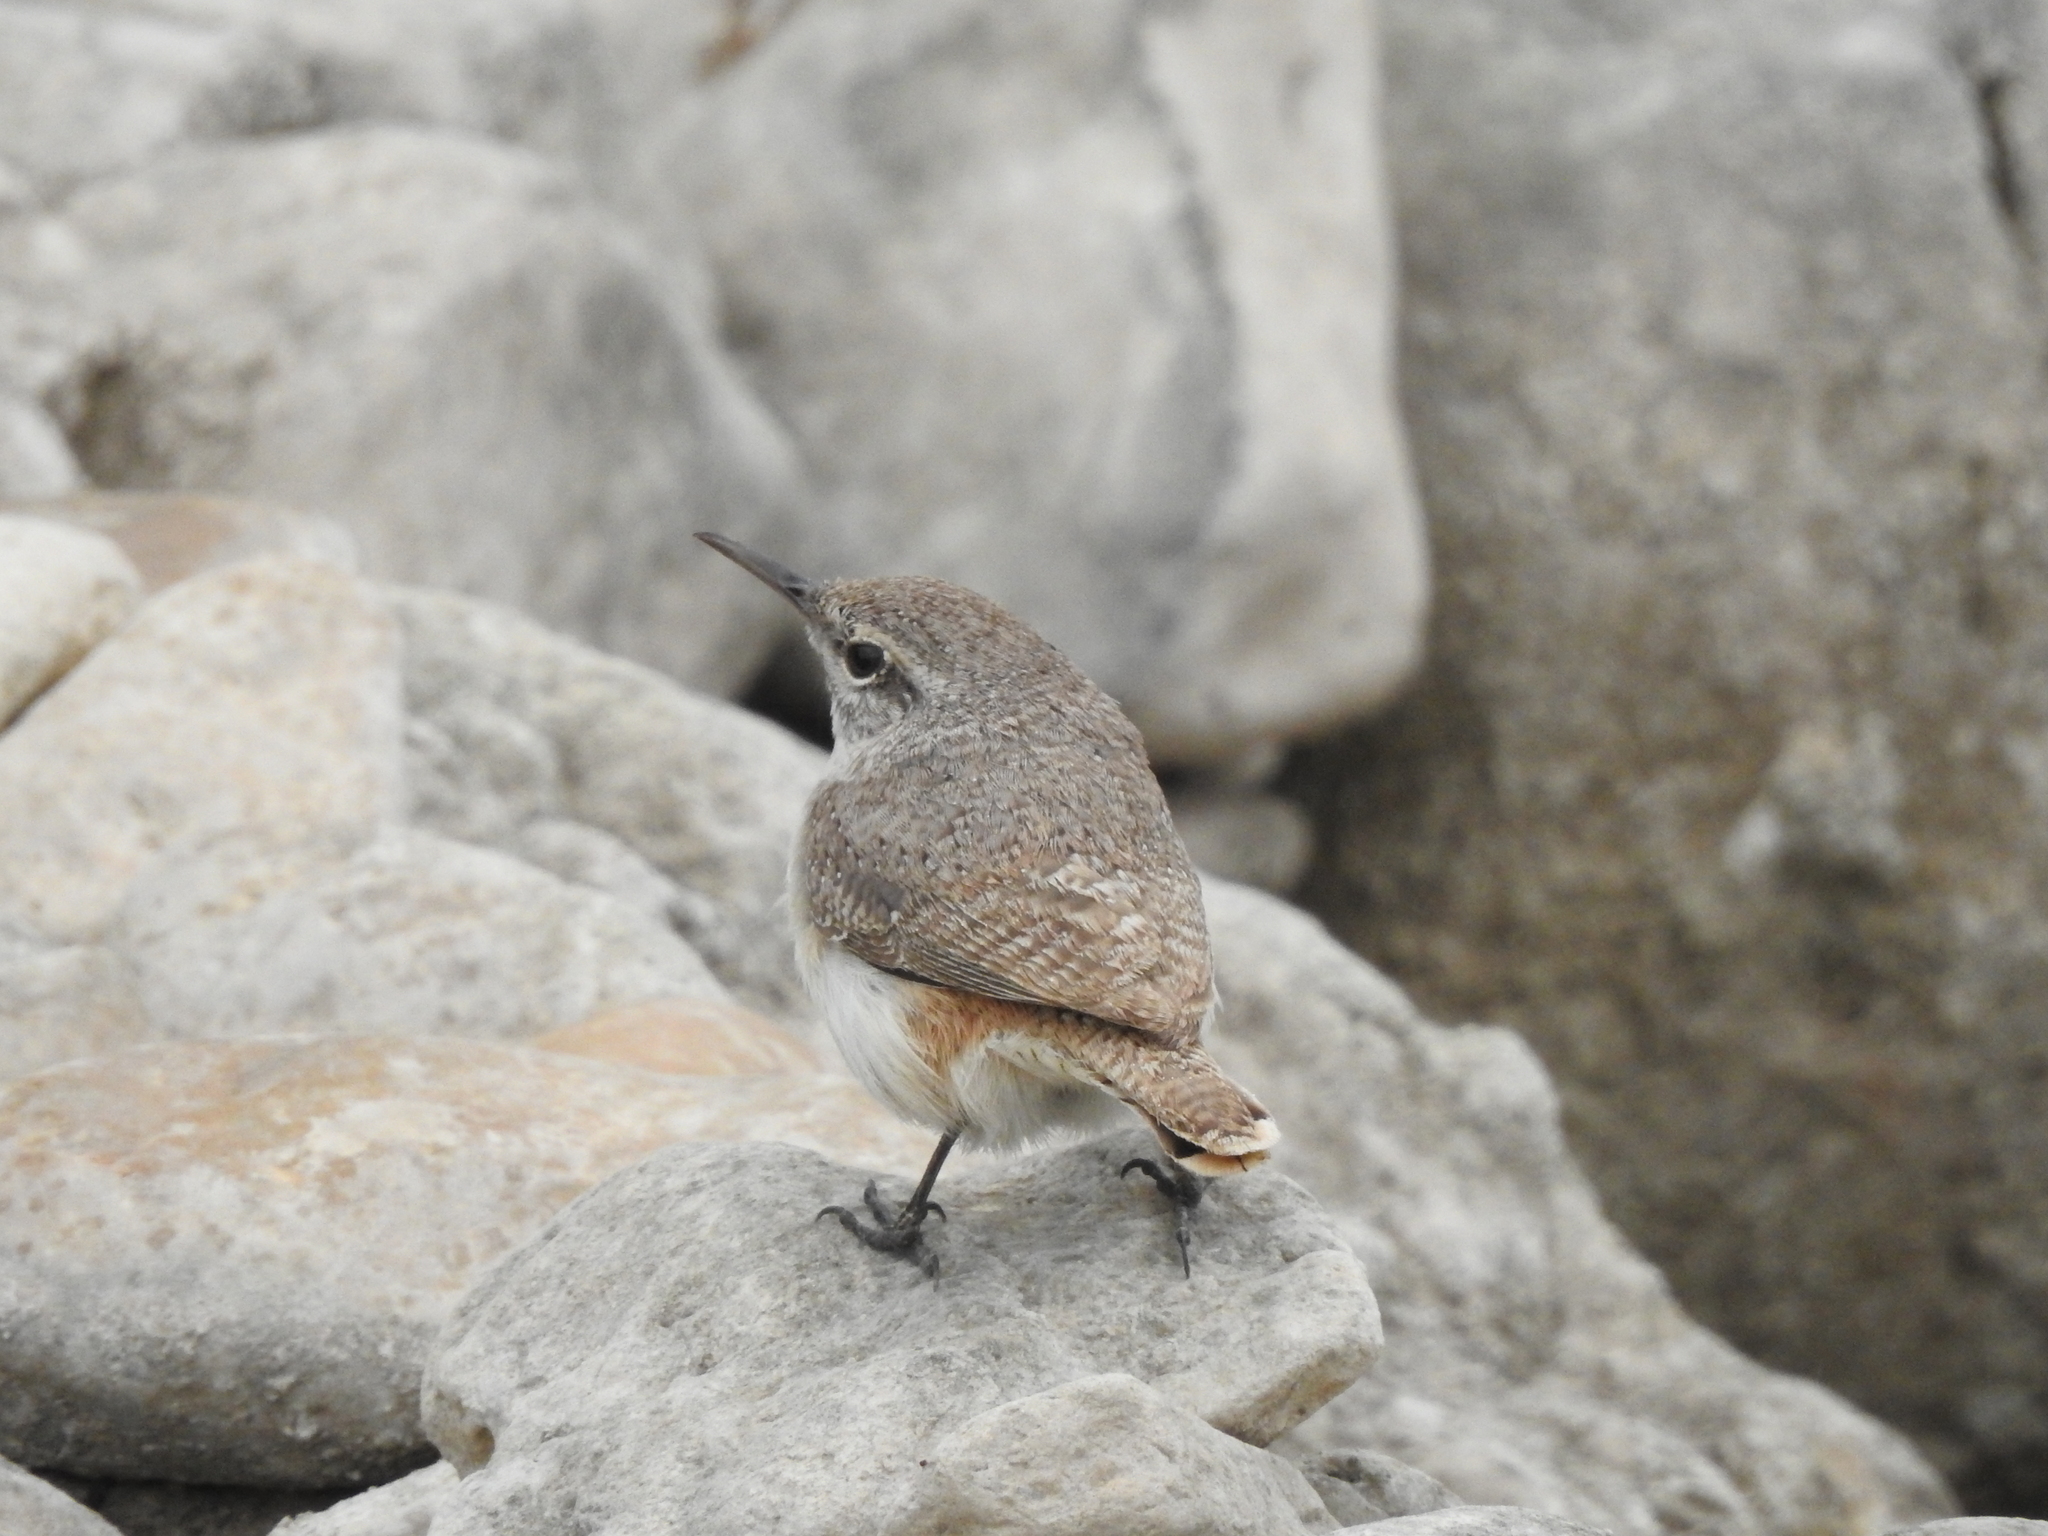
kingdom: Animalia
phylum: Chordata
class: Aves
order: Passeriformes
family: Troglodytidae
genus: Salpinctes
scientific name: Salpinctes obsoletus
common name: Rock wren
